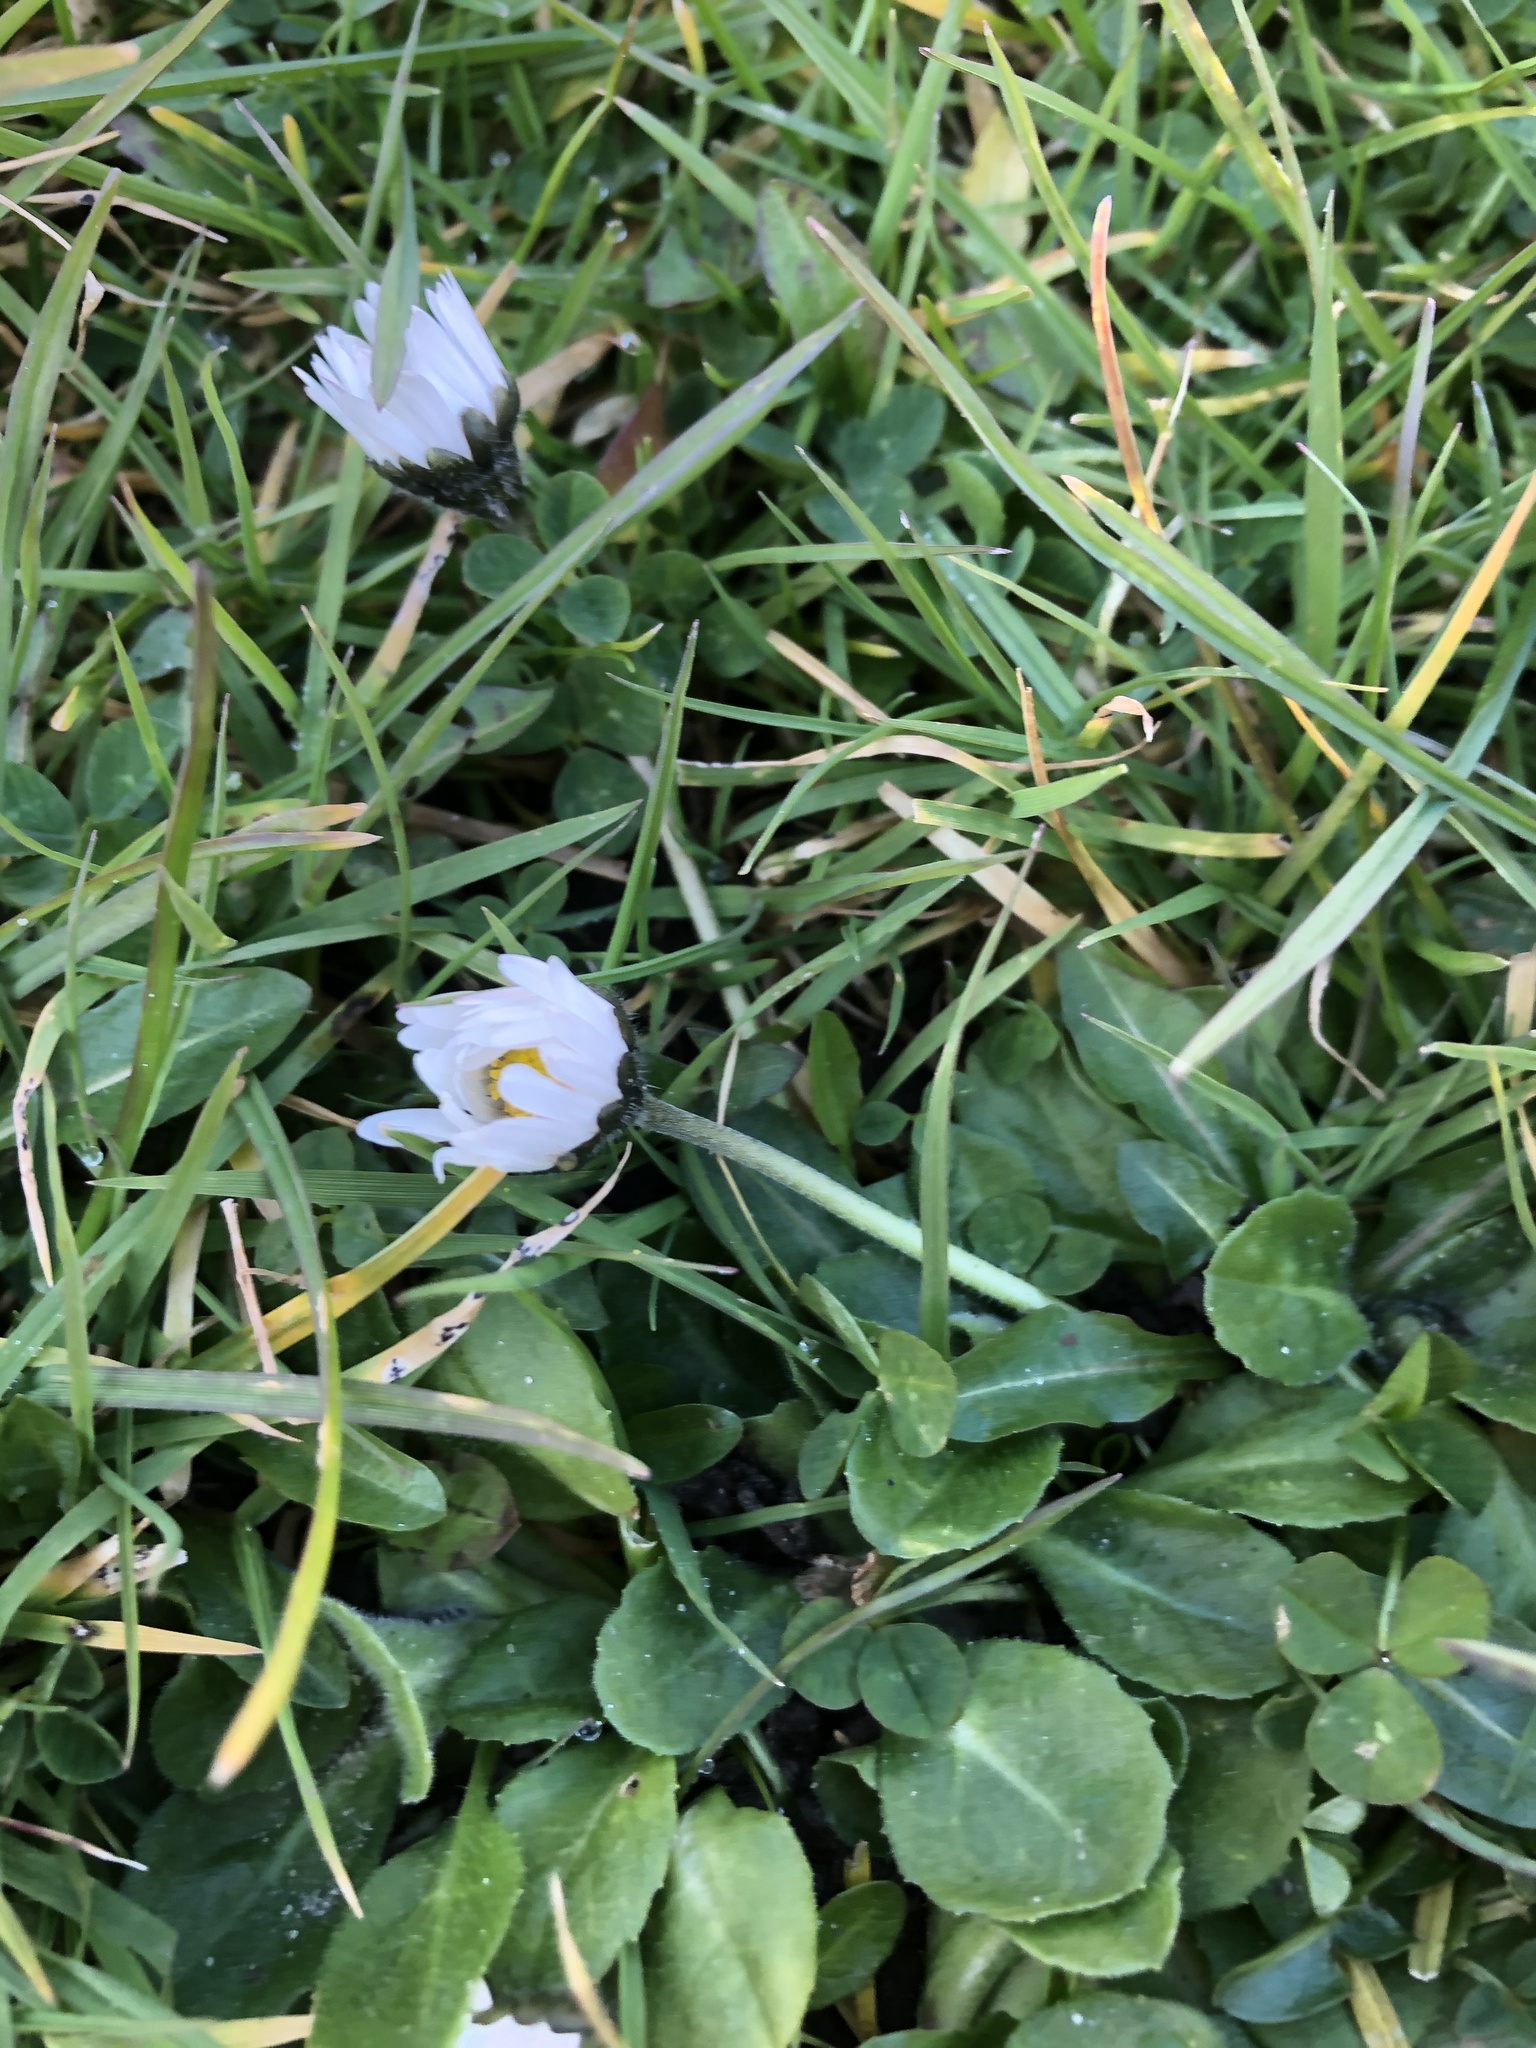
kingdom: Plantae
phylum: Tracheophyta
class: Magnoliopsida
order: Asterales
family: Asteraceae
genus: Bellis
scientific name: Bellis perennis
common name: Lawndaisy
